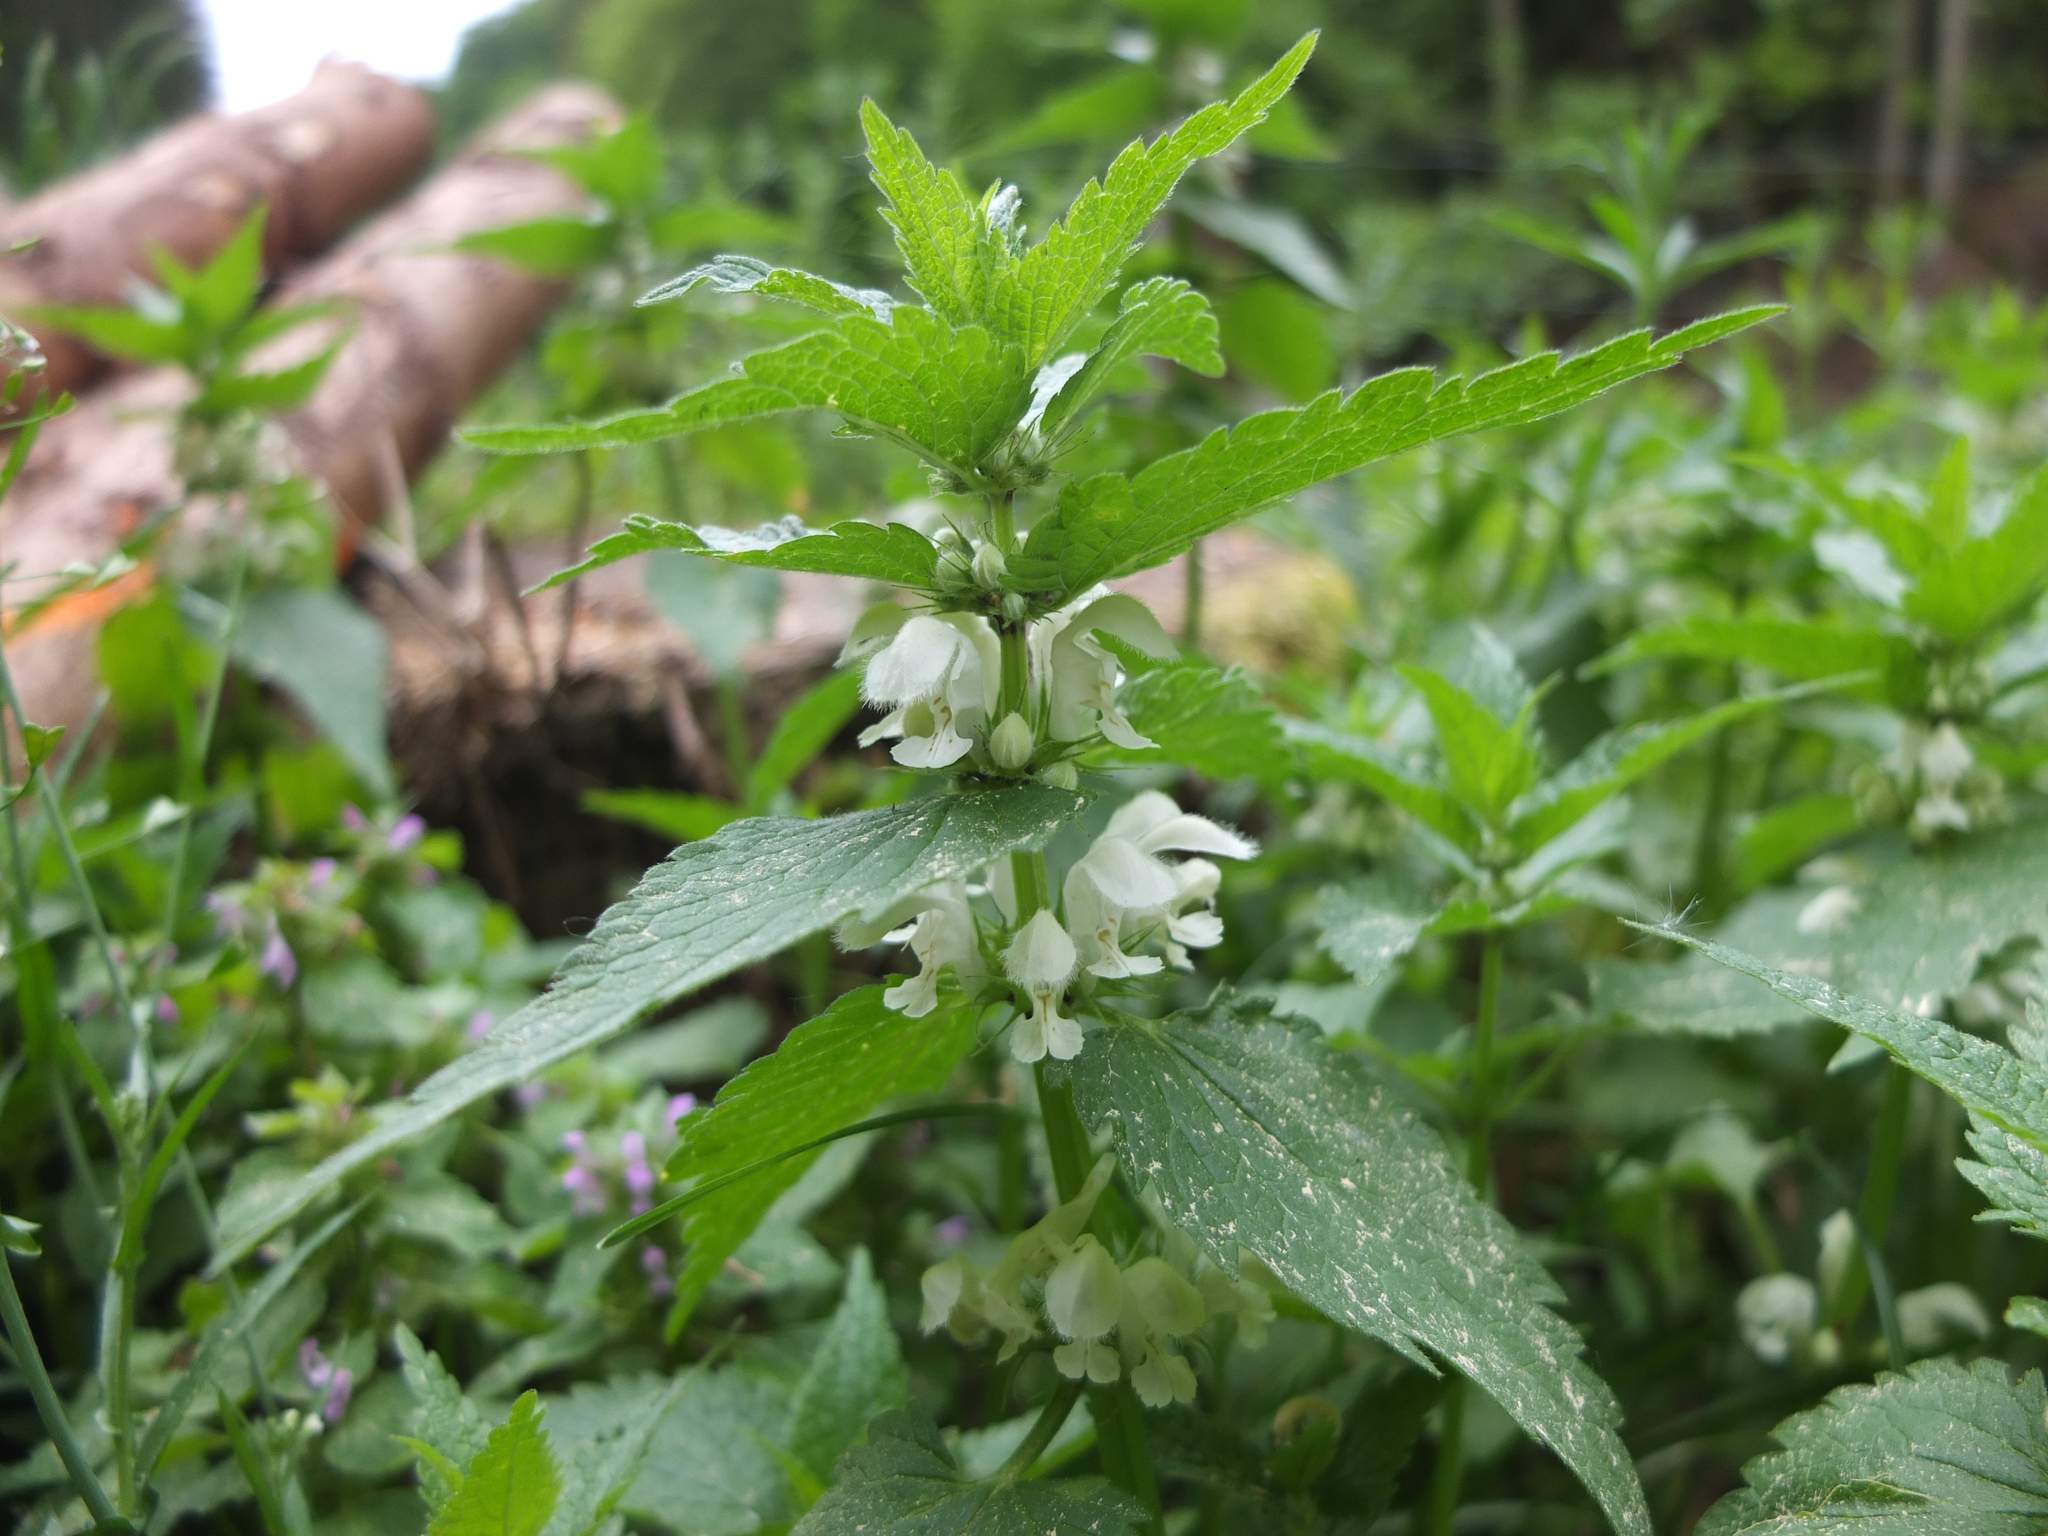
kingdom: Plantae
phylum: Tracheophyta
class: Magnoliopsida
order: Lamiales
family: Lamiaceae
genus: Lamium
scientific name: Lamium album
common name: White dead-nettle
